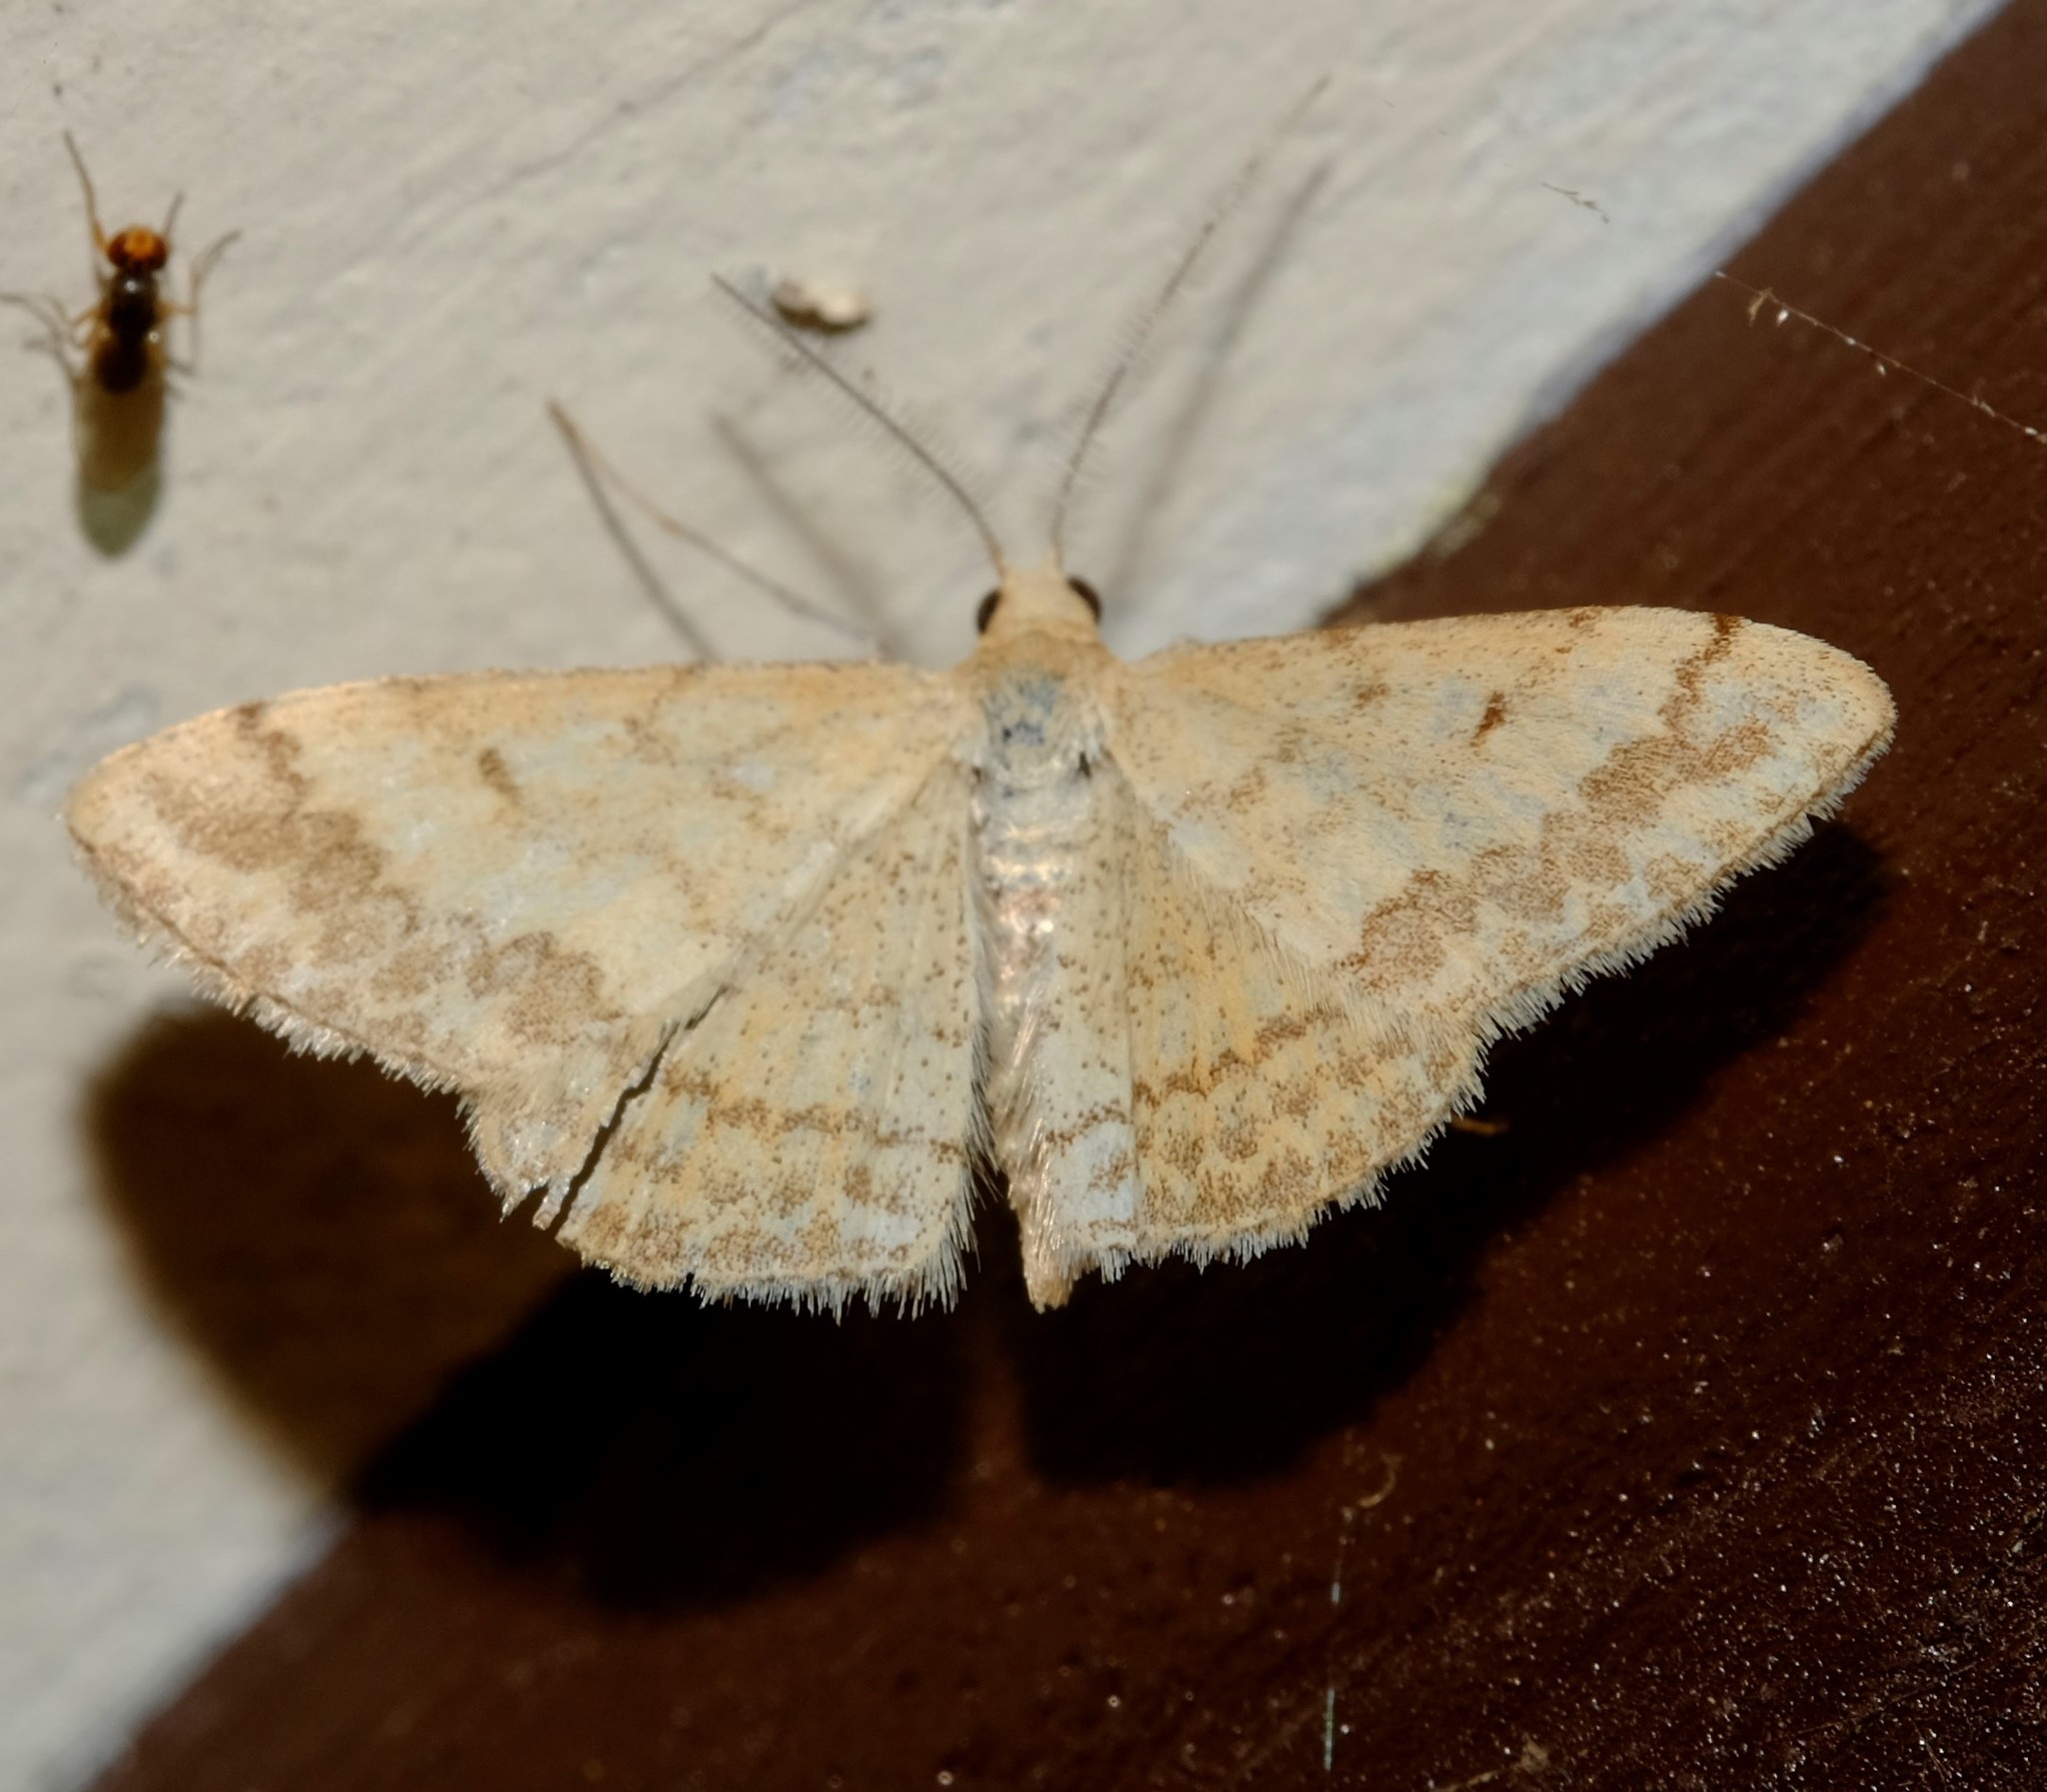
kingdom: Animalia
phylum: Arthropoda
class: Insecta
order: Lepidoptera
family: Geometridae
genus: Scopula
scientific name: Scopula rubraria
